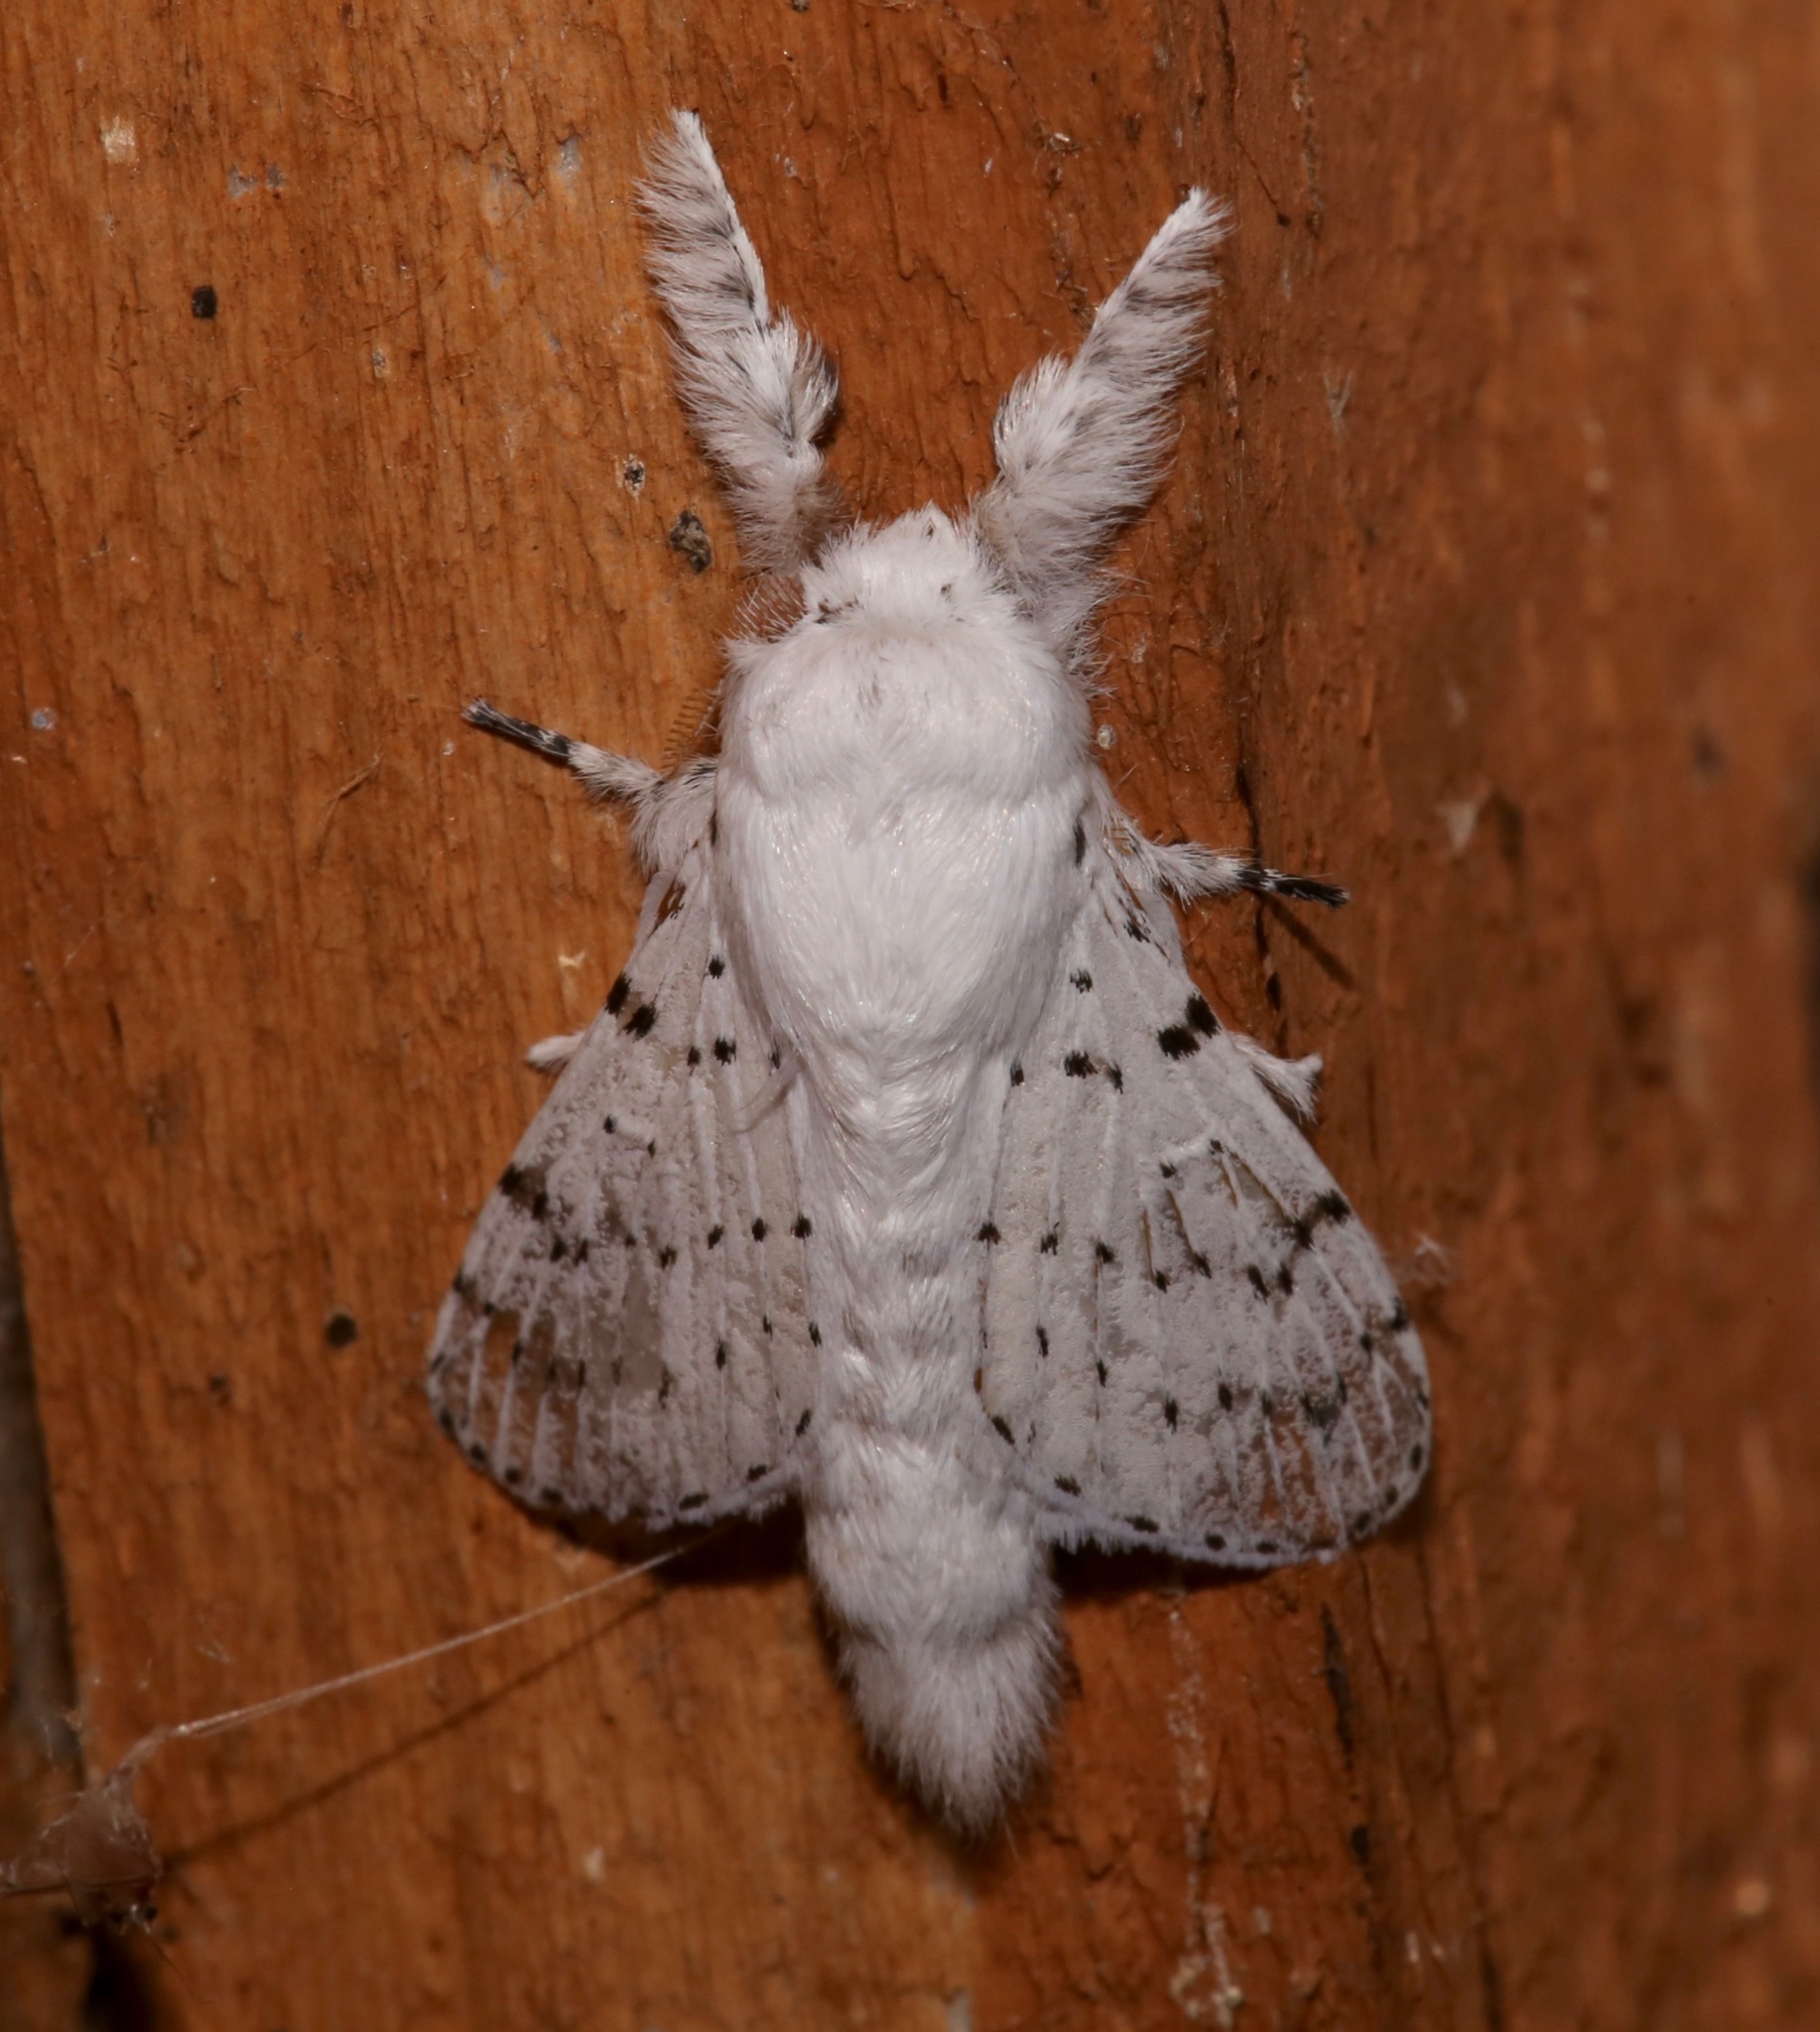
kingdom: Animalia
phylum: Arthropoda
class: Insecta
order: Lepidoptera
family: Lasiocampidae
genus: Artace
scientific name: Artace cribrarius
